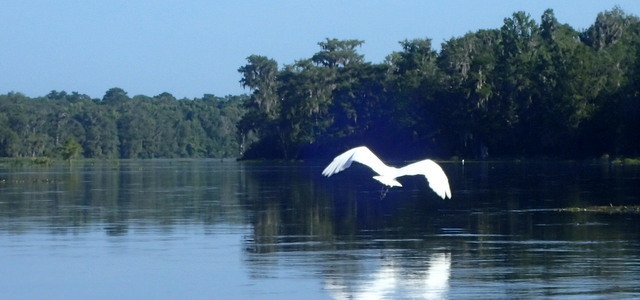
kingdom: Animalia
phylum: Chordata
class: Aves
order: Pelecaniformes
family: Ardeidae
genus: Ardea
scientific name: Ardea alba
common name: Great egret
